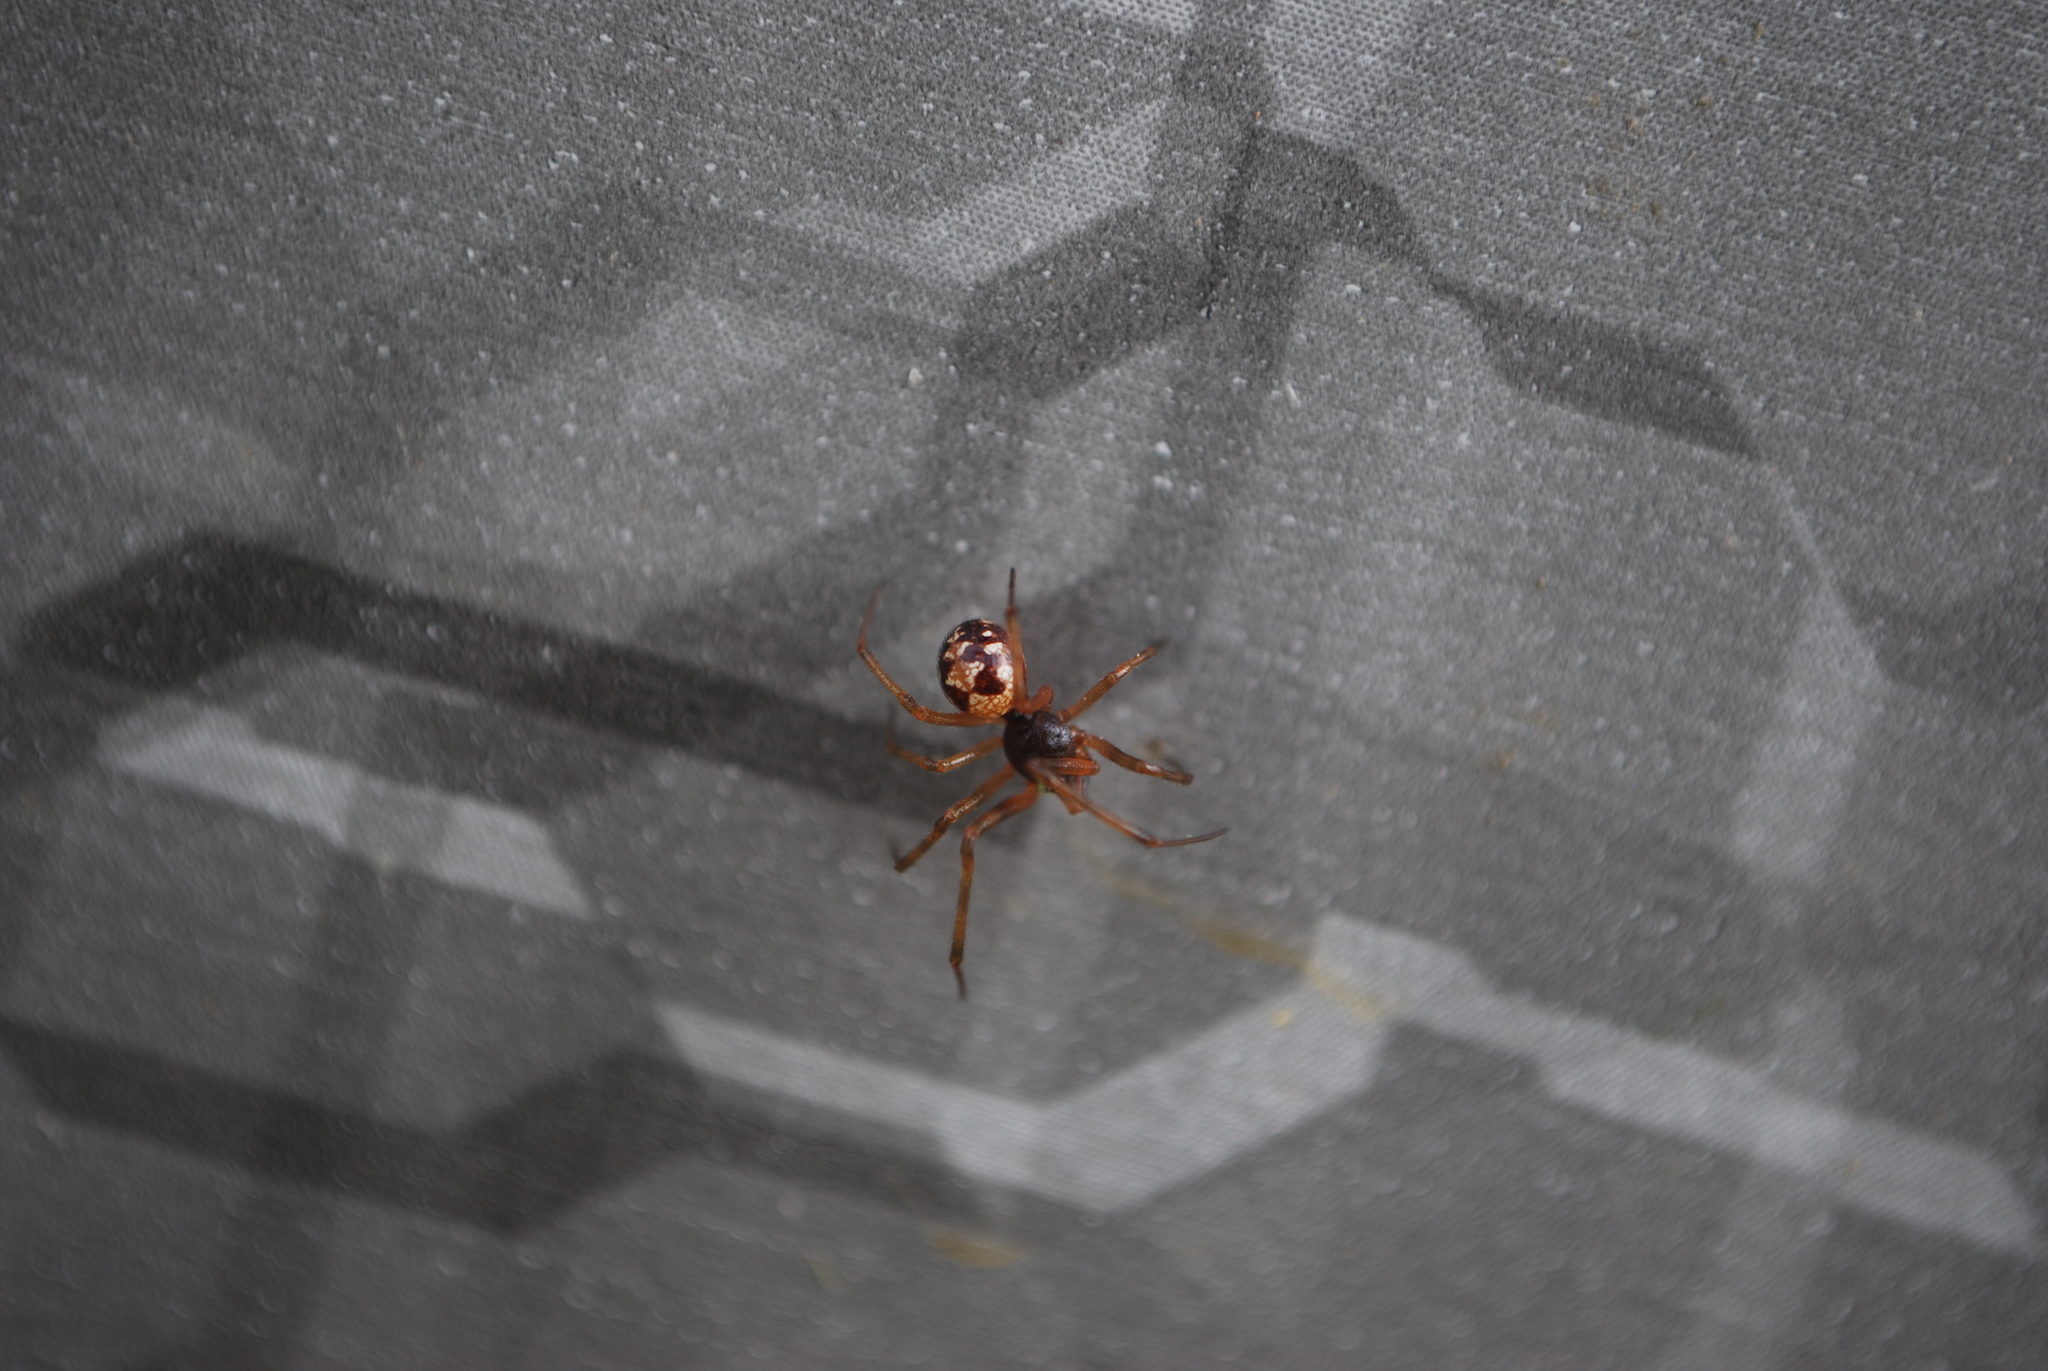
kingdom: Animalia
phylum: Arthropoda
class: Arachnida
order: Araneae
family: Theridiidae
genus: Steatoda
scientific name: Steatoda triangulosa
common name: Triangulate bud spider
